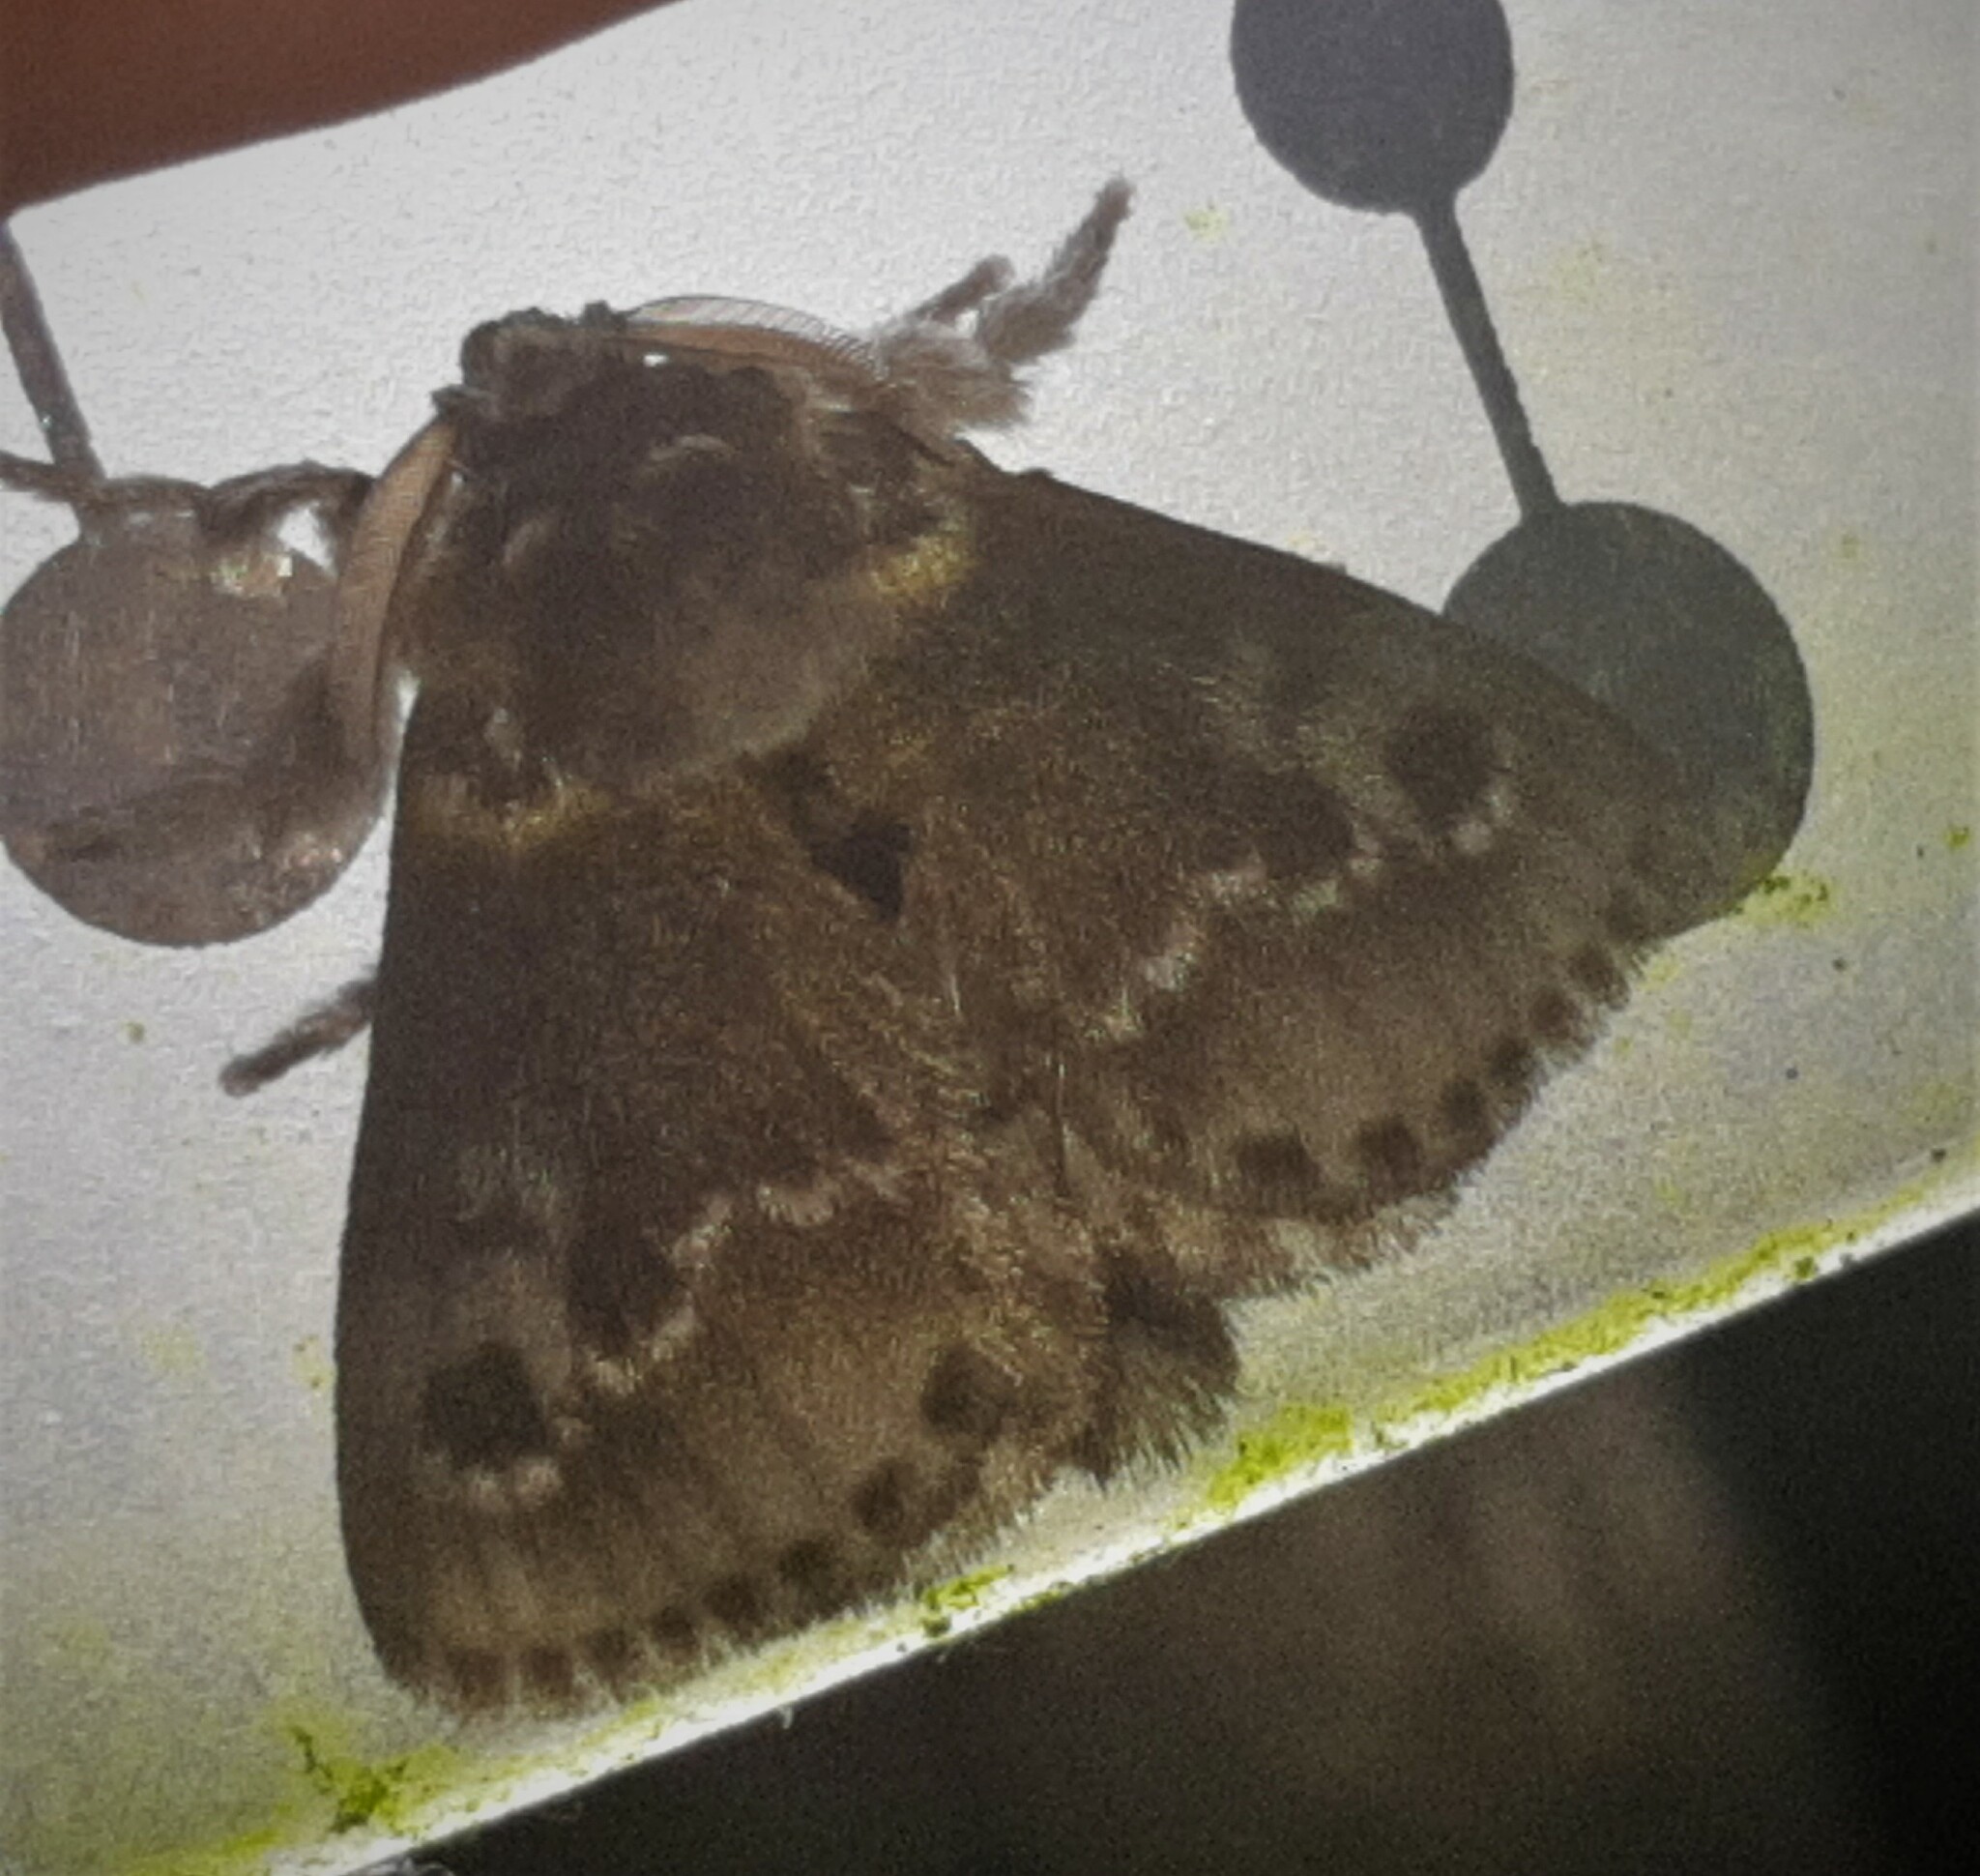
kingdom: Animalia
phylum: Arthropoda
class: Insecta
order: Lepidoptera
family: Megalopygidae
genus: Podalia
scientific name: Podalia habitus
